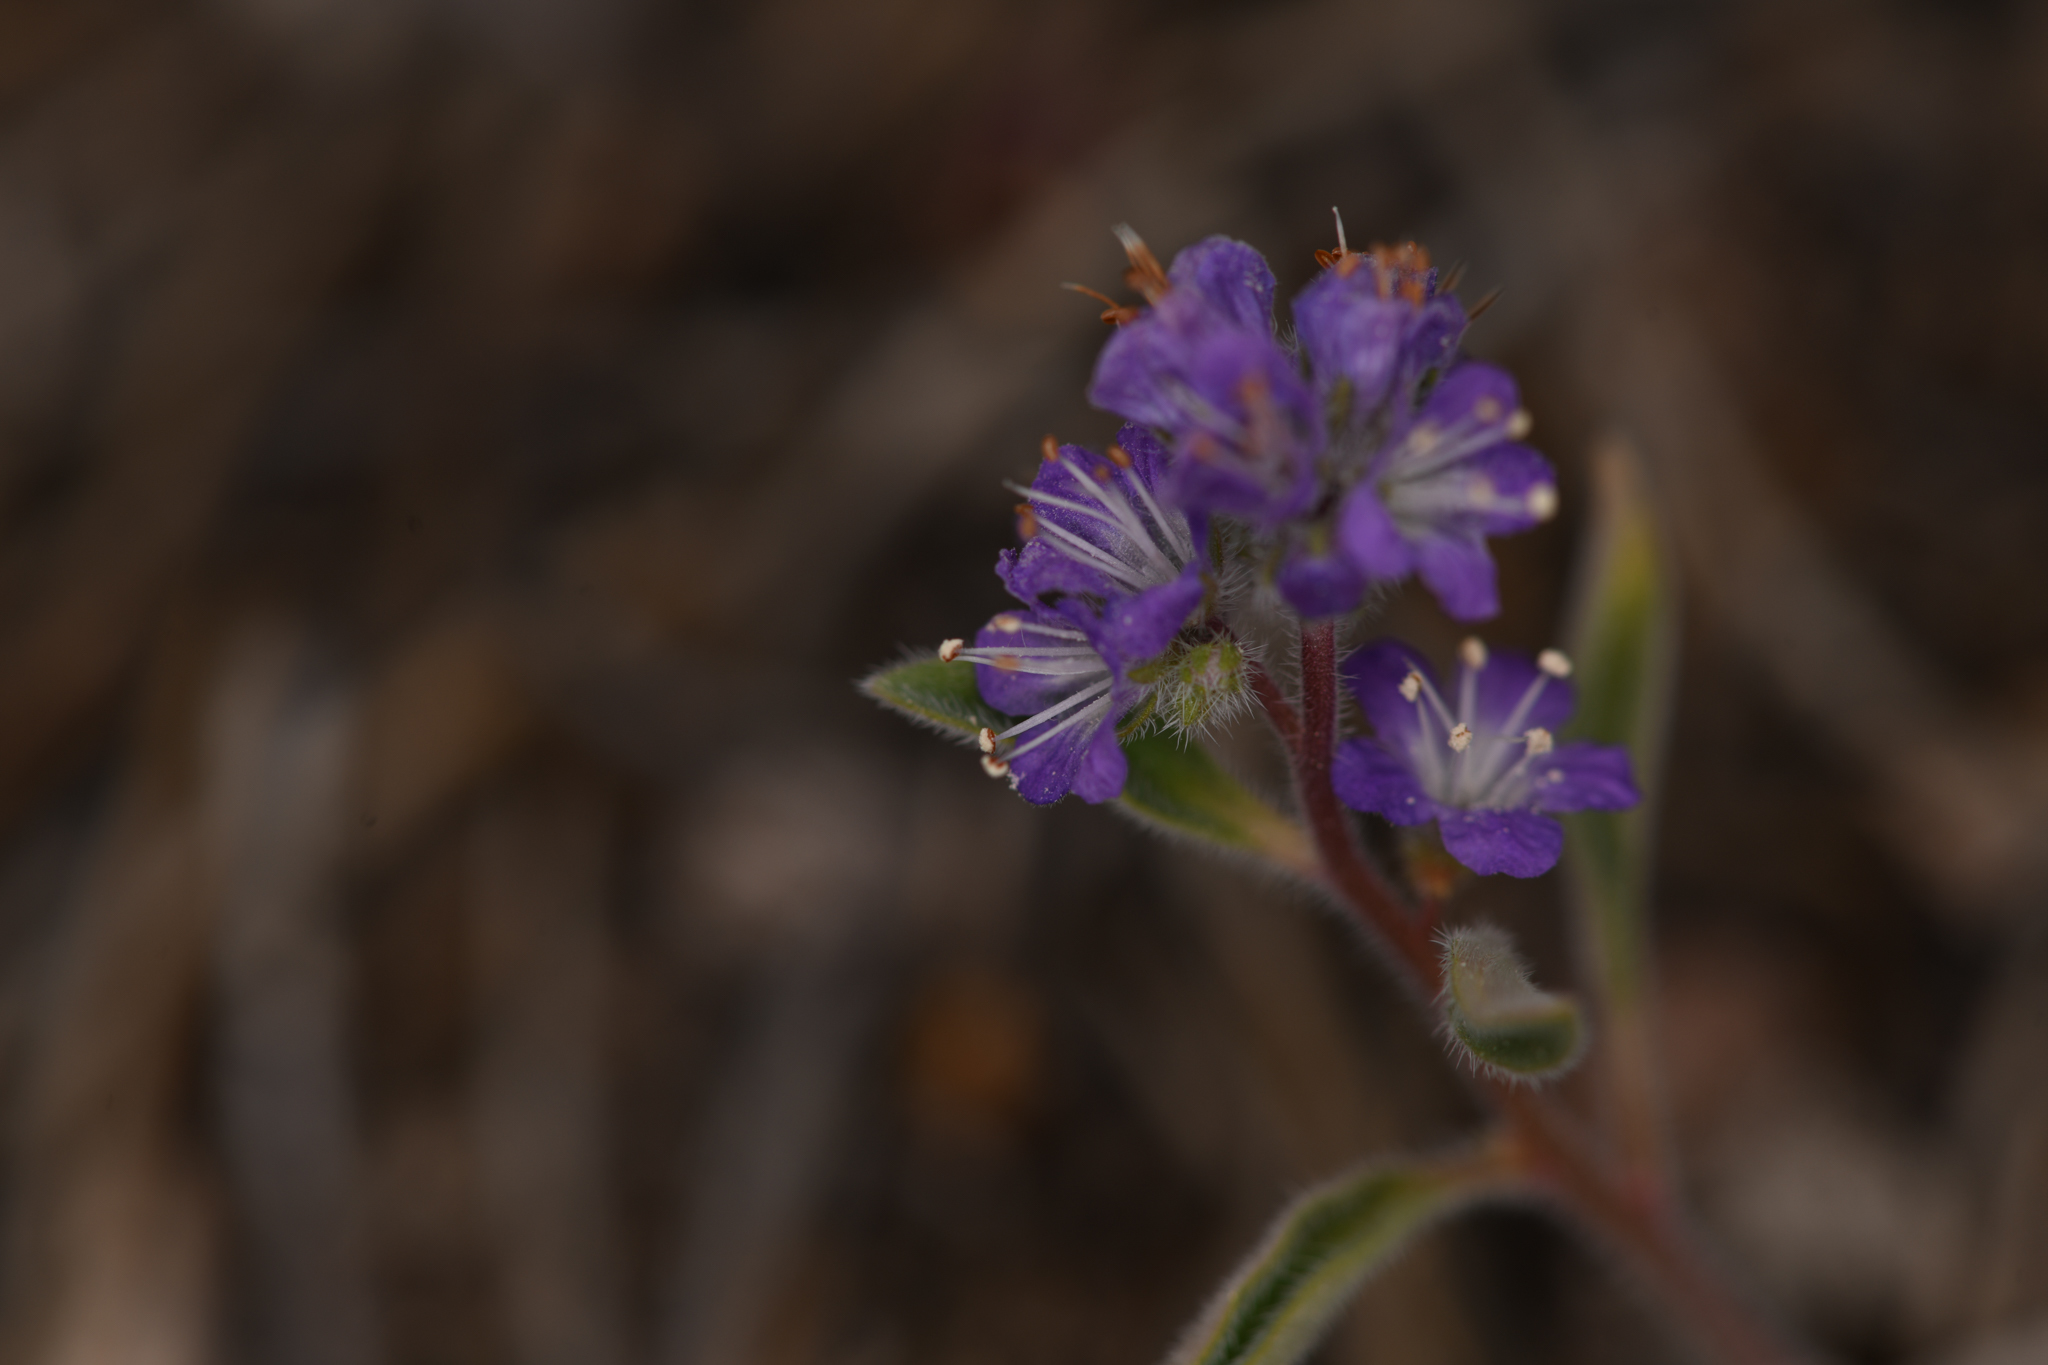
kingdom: Plantae
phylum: Tracheophyta
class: Magnoliopsida
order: Boraginales
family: Hydrophyllaceae
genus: Phacelia
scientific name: Phacelia humilis
